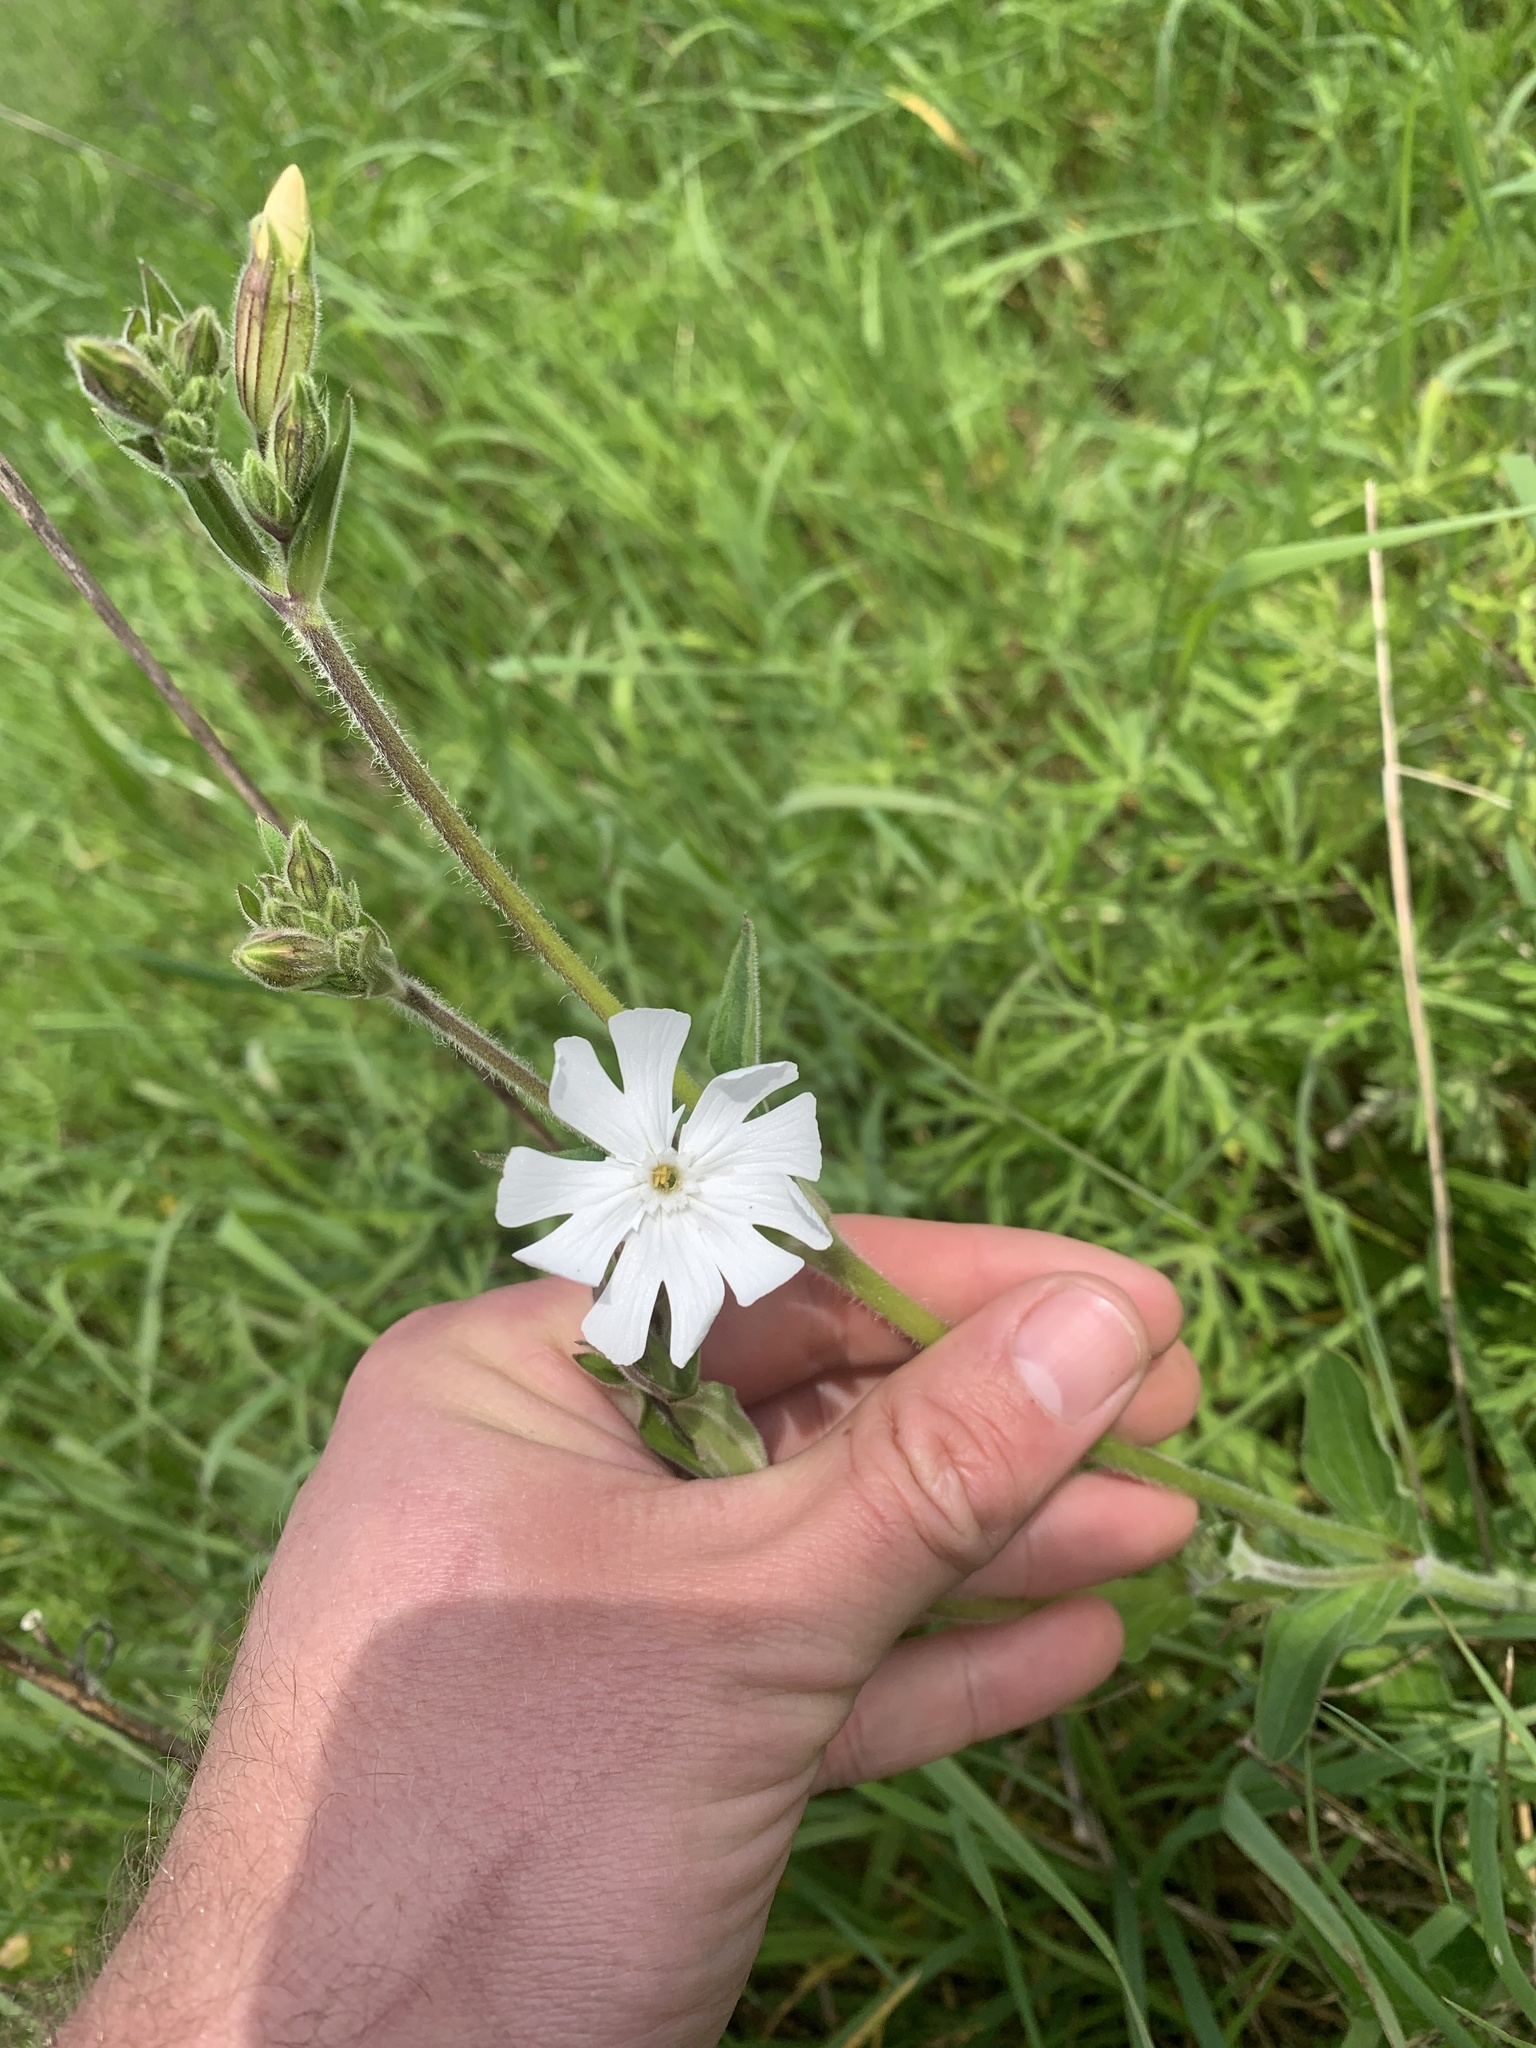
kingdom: Plantae
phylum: Tracheophyta
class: Magnoliopsida
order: Caryophyllales
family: Caryophyllaceae
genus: Silene
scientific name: Silene latifolia
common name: White campion
